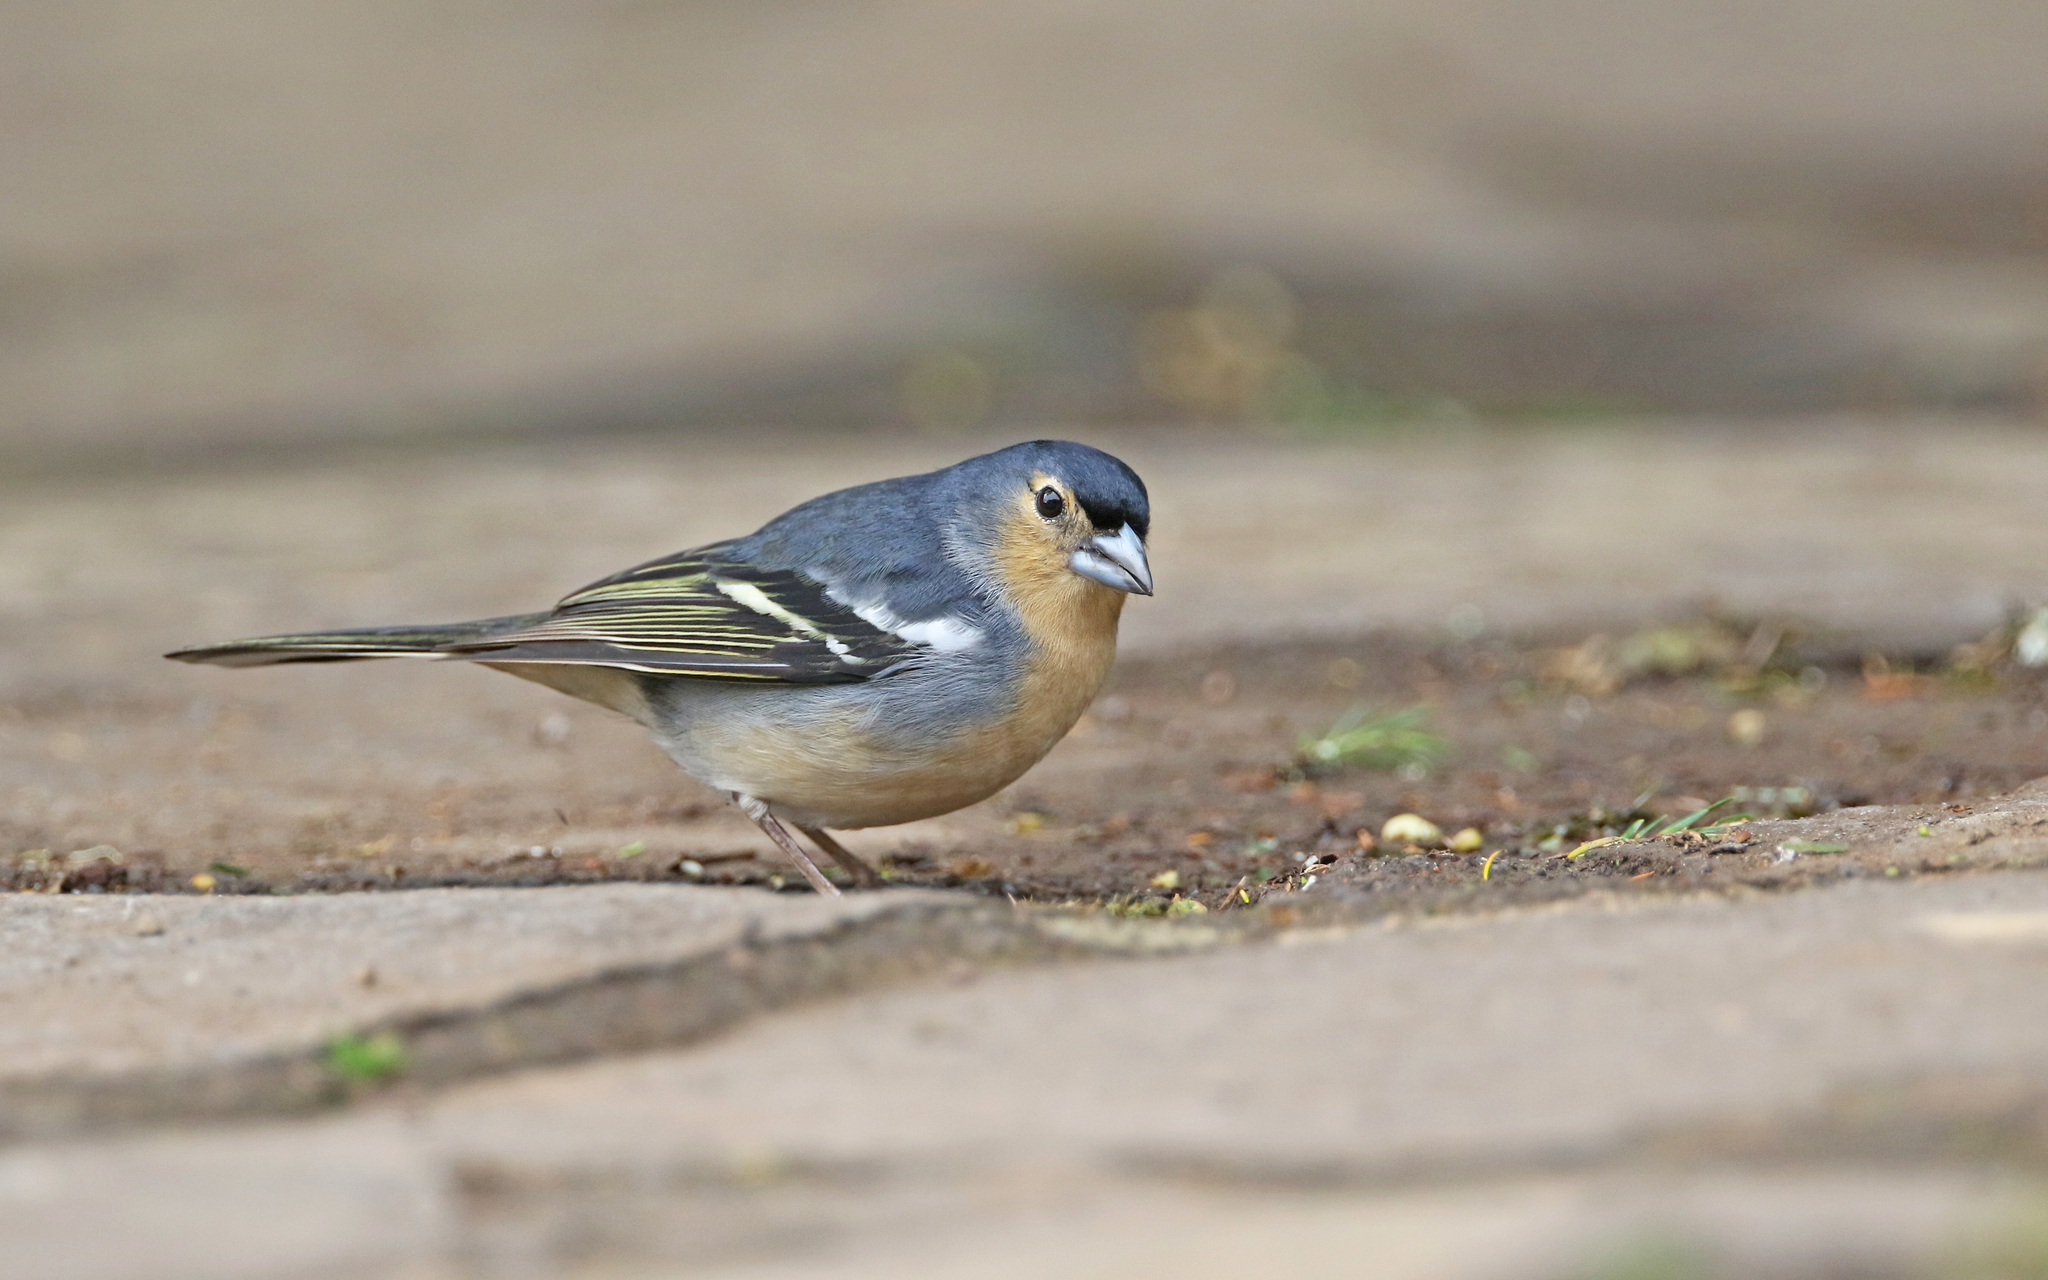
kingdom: Animalia
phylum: Chordata
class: Aves
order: Passeriformes
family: Fringillidae
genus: Fringilla
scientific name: Fringilla canariensis
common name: Canary islands chaffinch
